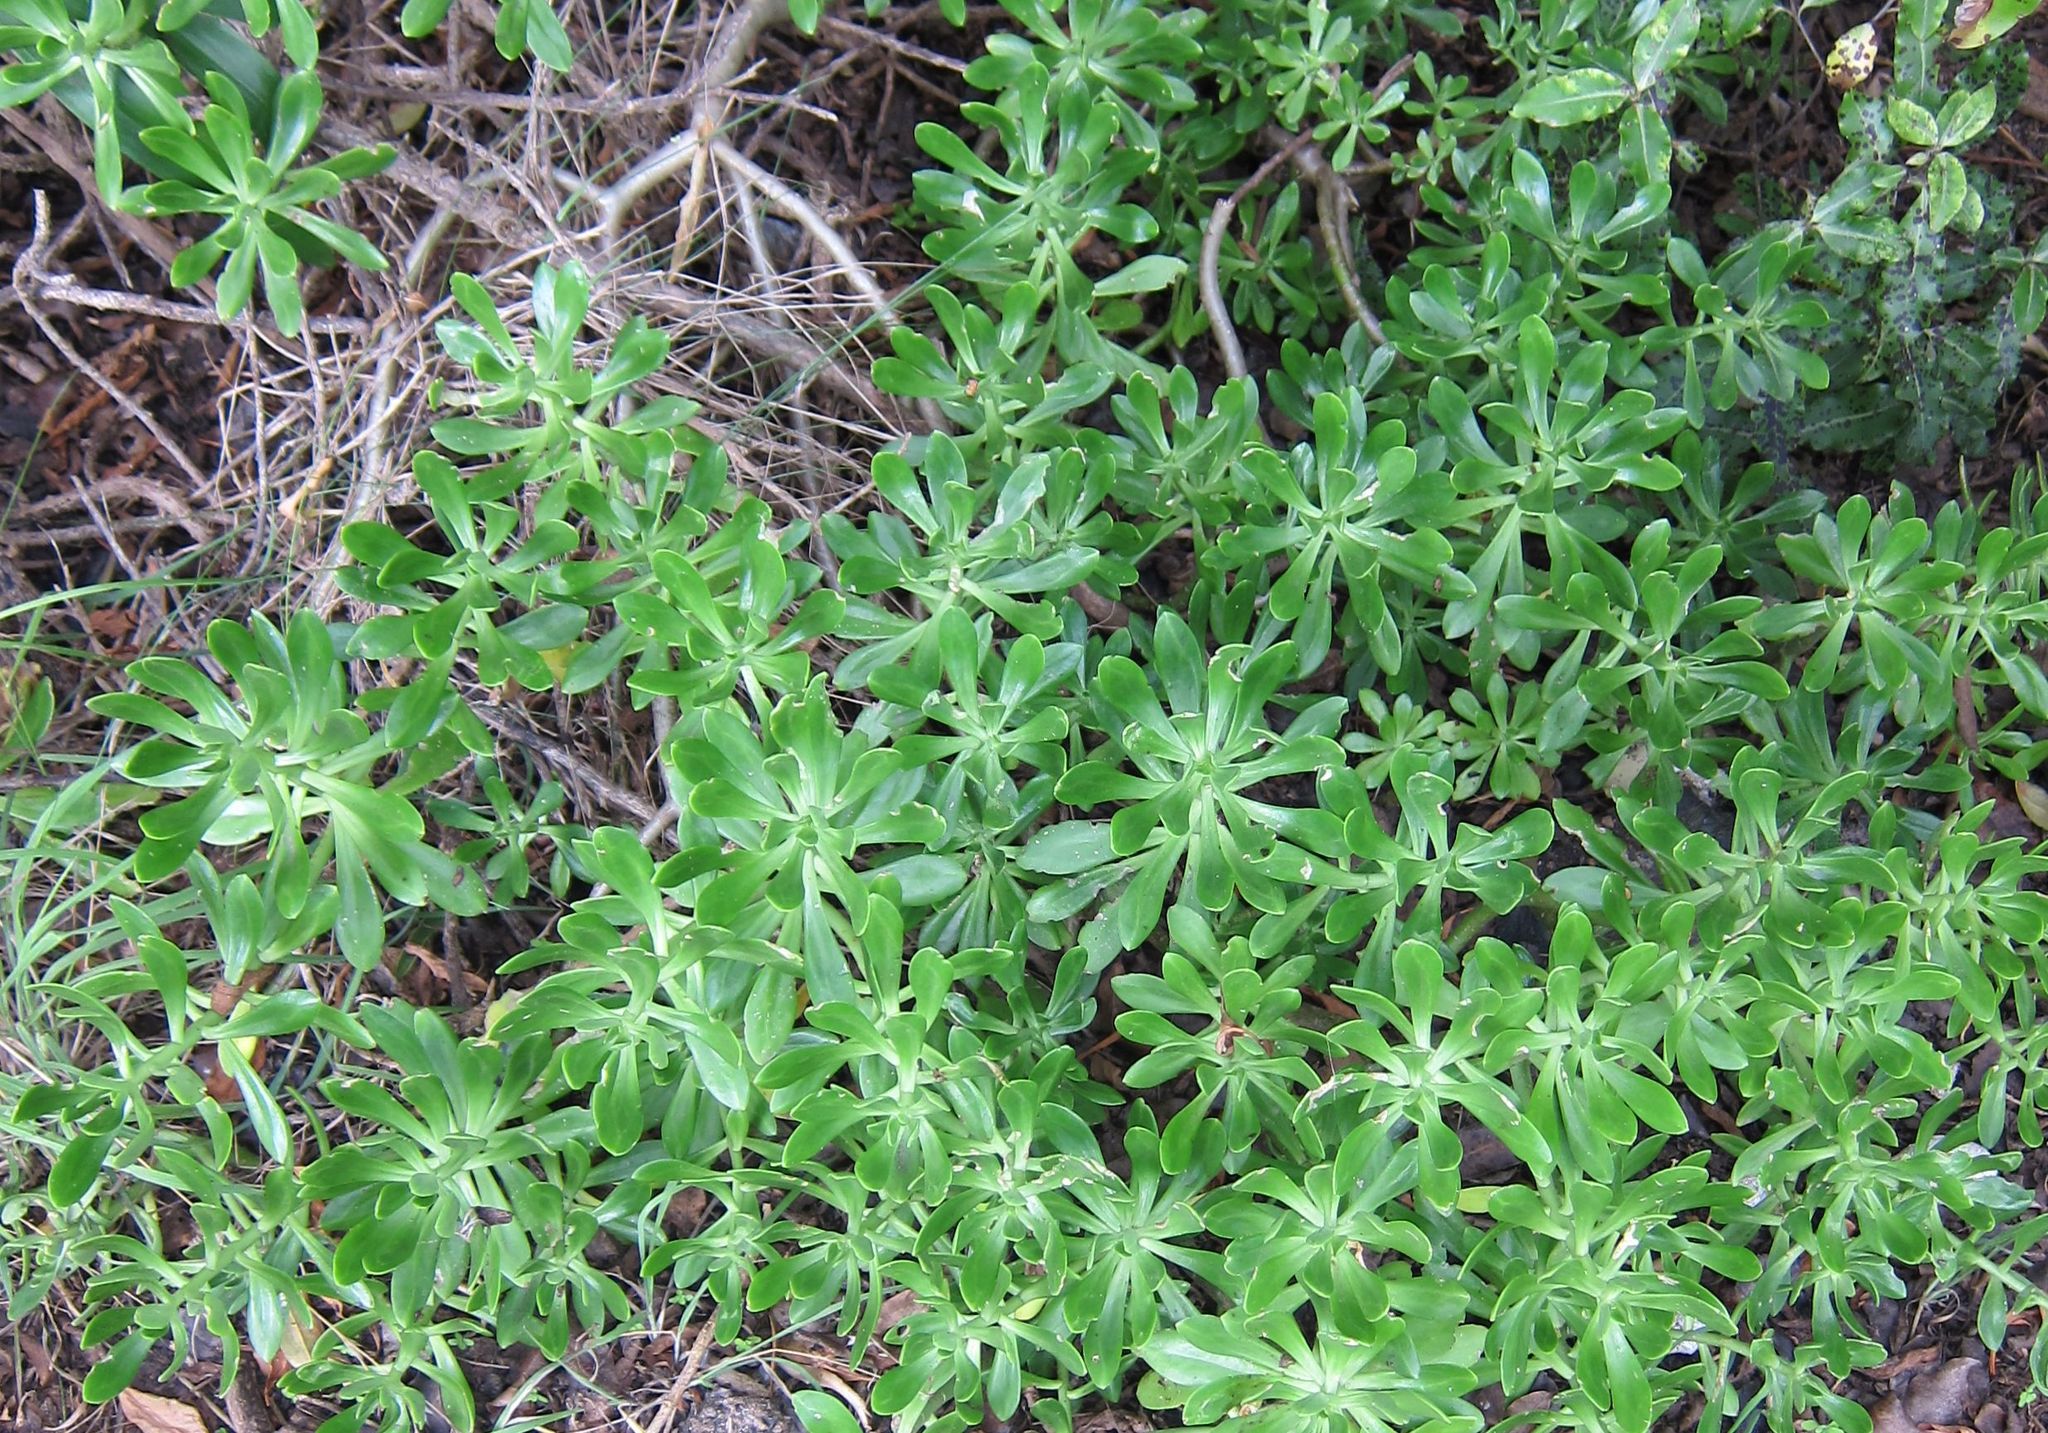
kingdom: Plantae
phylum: Tracheophyta
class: Magnoliopsida
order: Saxifragales
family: Crassulaceae
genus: Sedum
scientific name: Sedum praealtum
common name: Greater mexican-stonecrop
